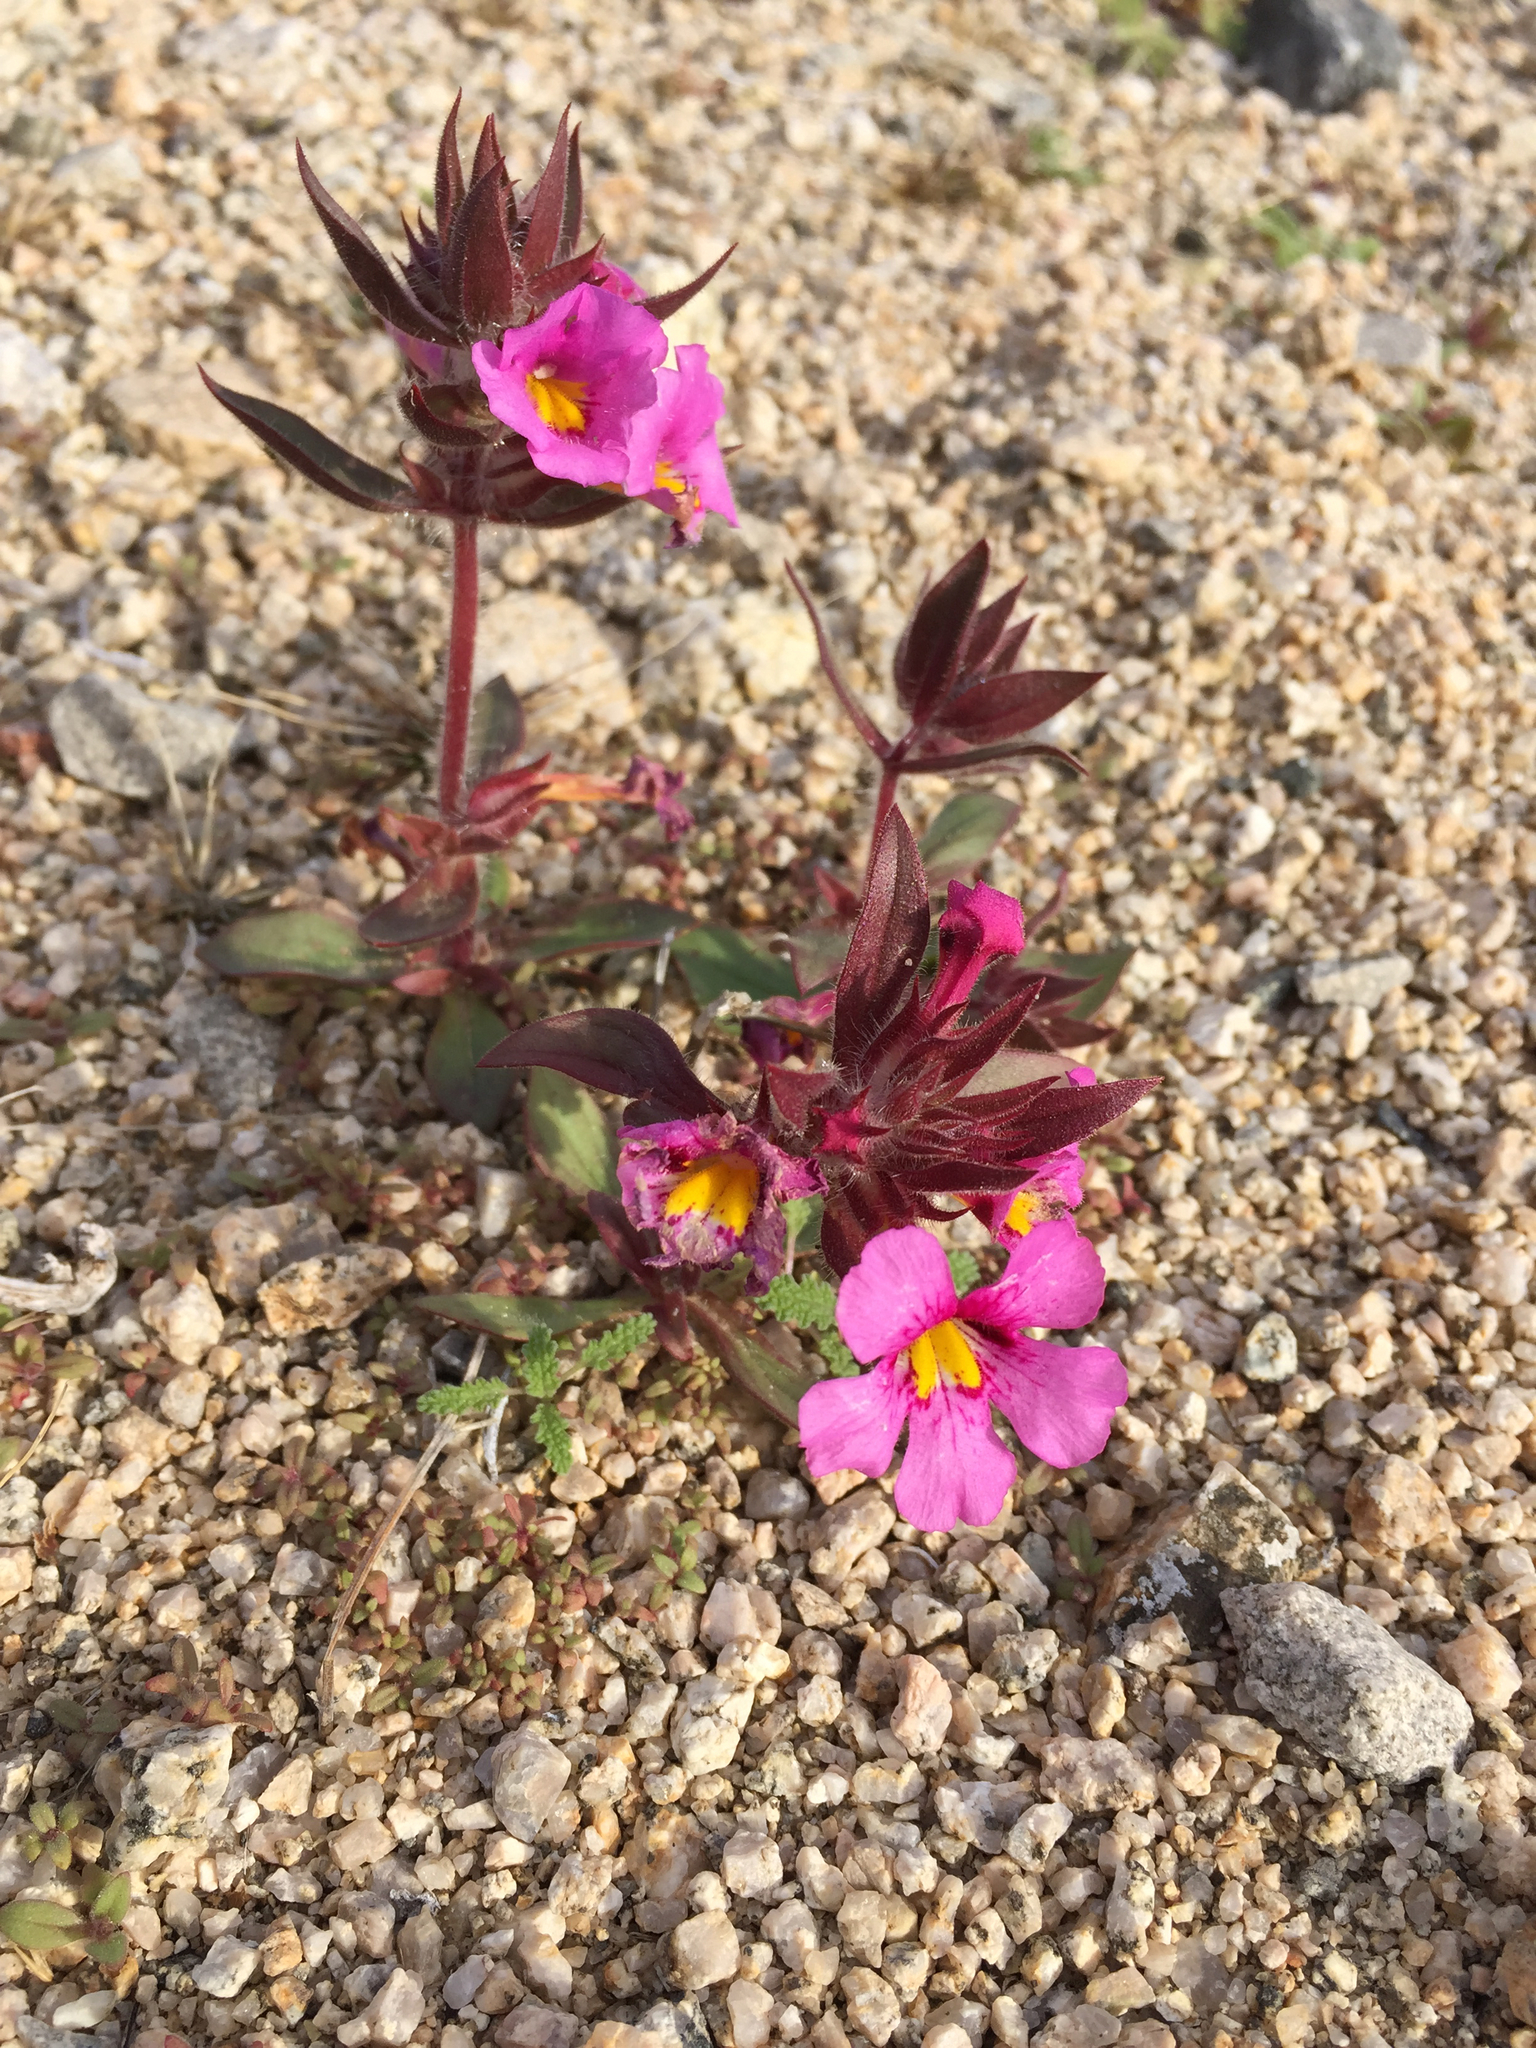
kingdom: Plantae
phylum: Tracheophyta
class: Magnoliopsida
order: Lamiales
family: Phrymaceae
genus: Diplacus
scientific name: Diplacus bigelovii
